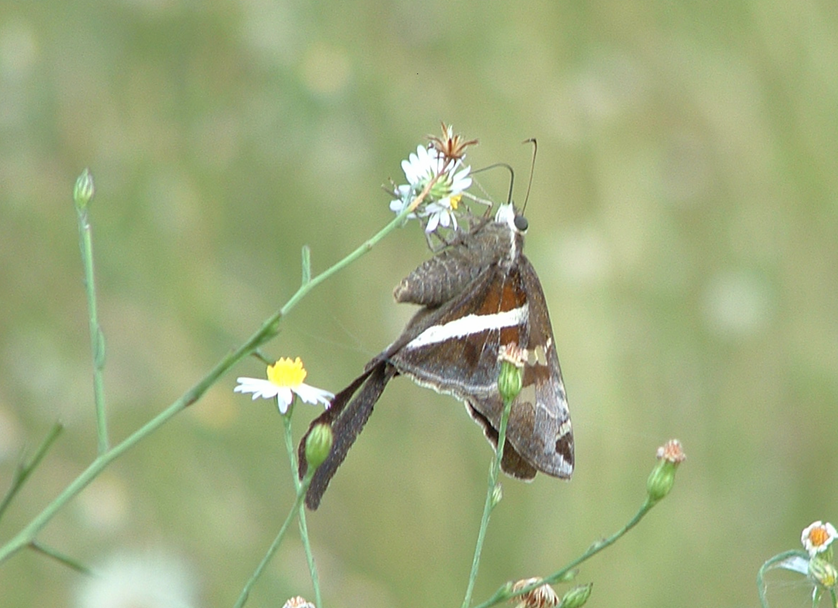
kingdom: Animalia
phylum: Arthropoda
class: Insecta
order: Lepidoptera
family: Hesperiidae
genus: Chioides
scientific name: Chioides catillus
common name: Silverbanded skipper
